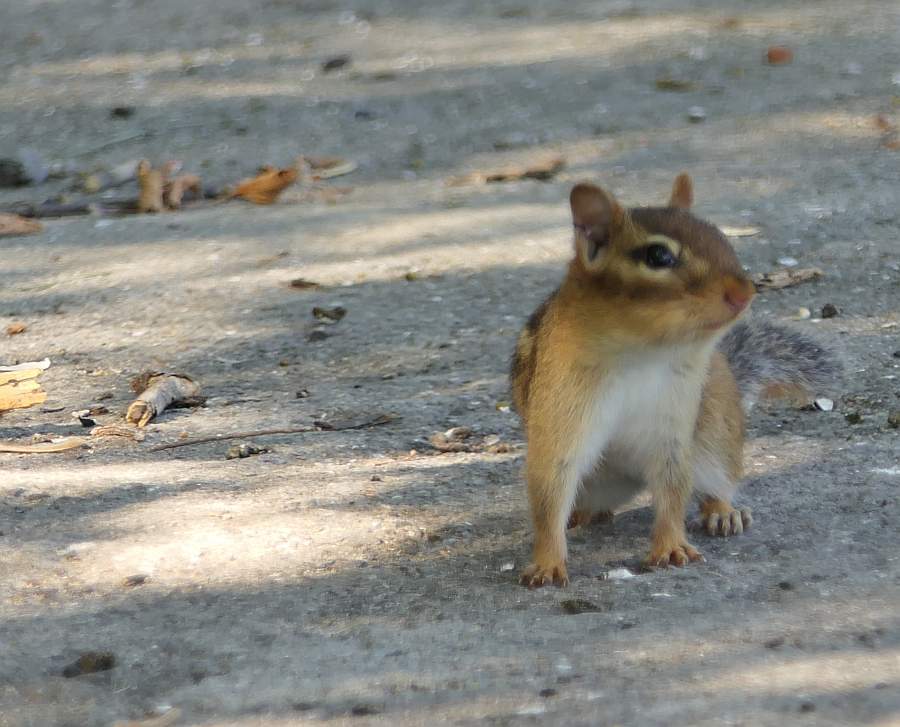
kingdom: Animalia
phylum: Chordata
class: Mammalia
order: Rodentia
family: Sciuridae
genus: Tamias
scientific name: Tamias striatus
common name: Eastern chipmunk
